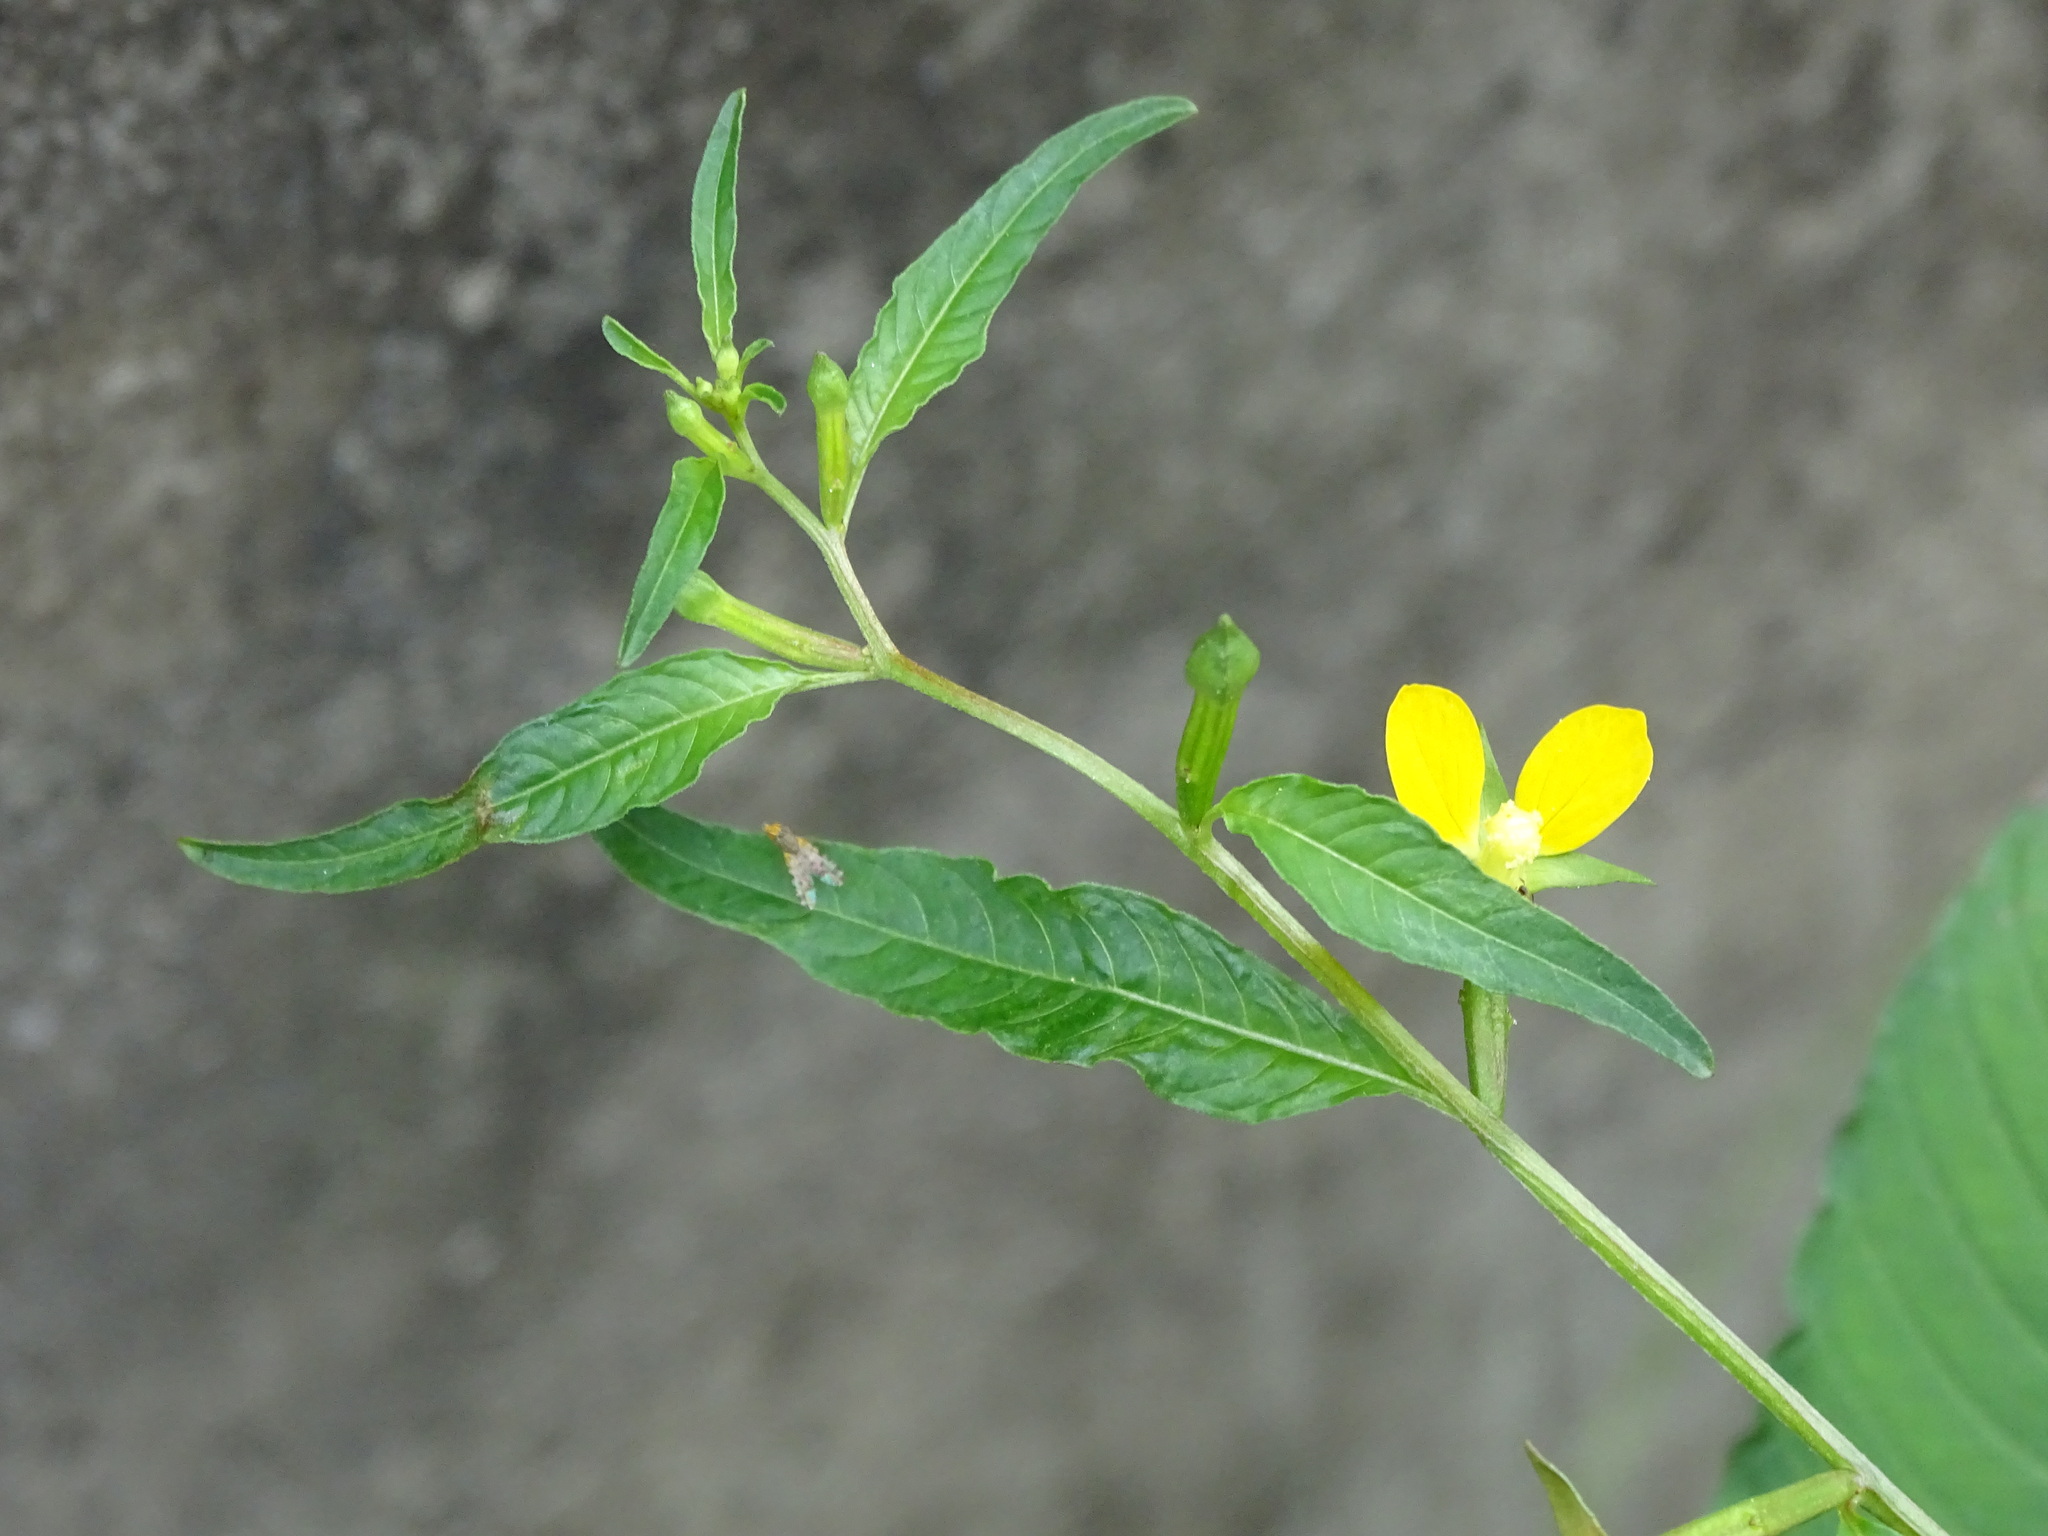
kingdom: Plantae
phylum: Tracheophyta
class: Magnoliopsida
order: Myrtales
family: Onagraceae
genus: Ludwigia
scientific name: Ludwigia hyssopifolia
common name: Linear leaf water primrose
